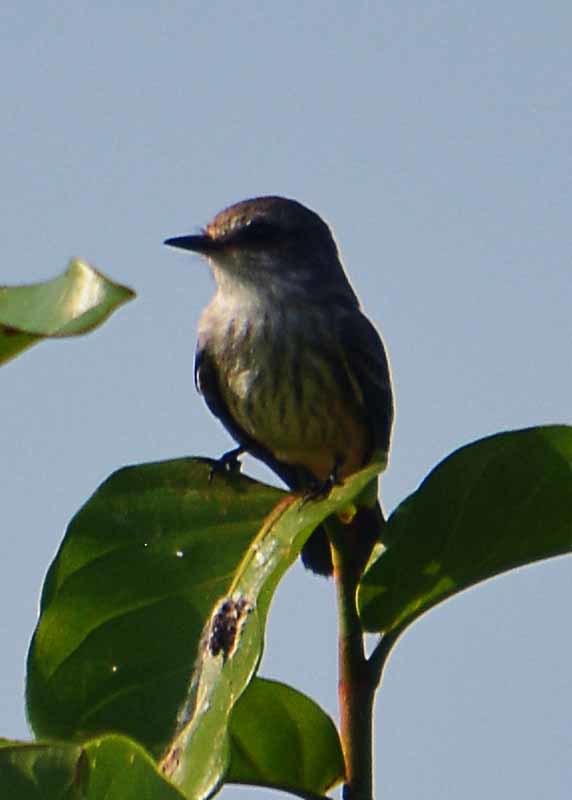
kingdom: Animalia
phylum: Chordata
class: Aves
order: Passeriformes
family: Tyrannidae
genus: Pyrocephalus
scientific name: Pyrocephalus rubinus
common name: Vermilion flycatcher
